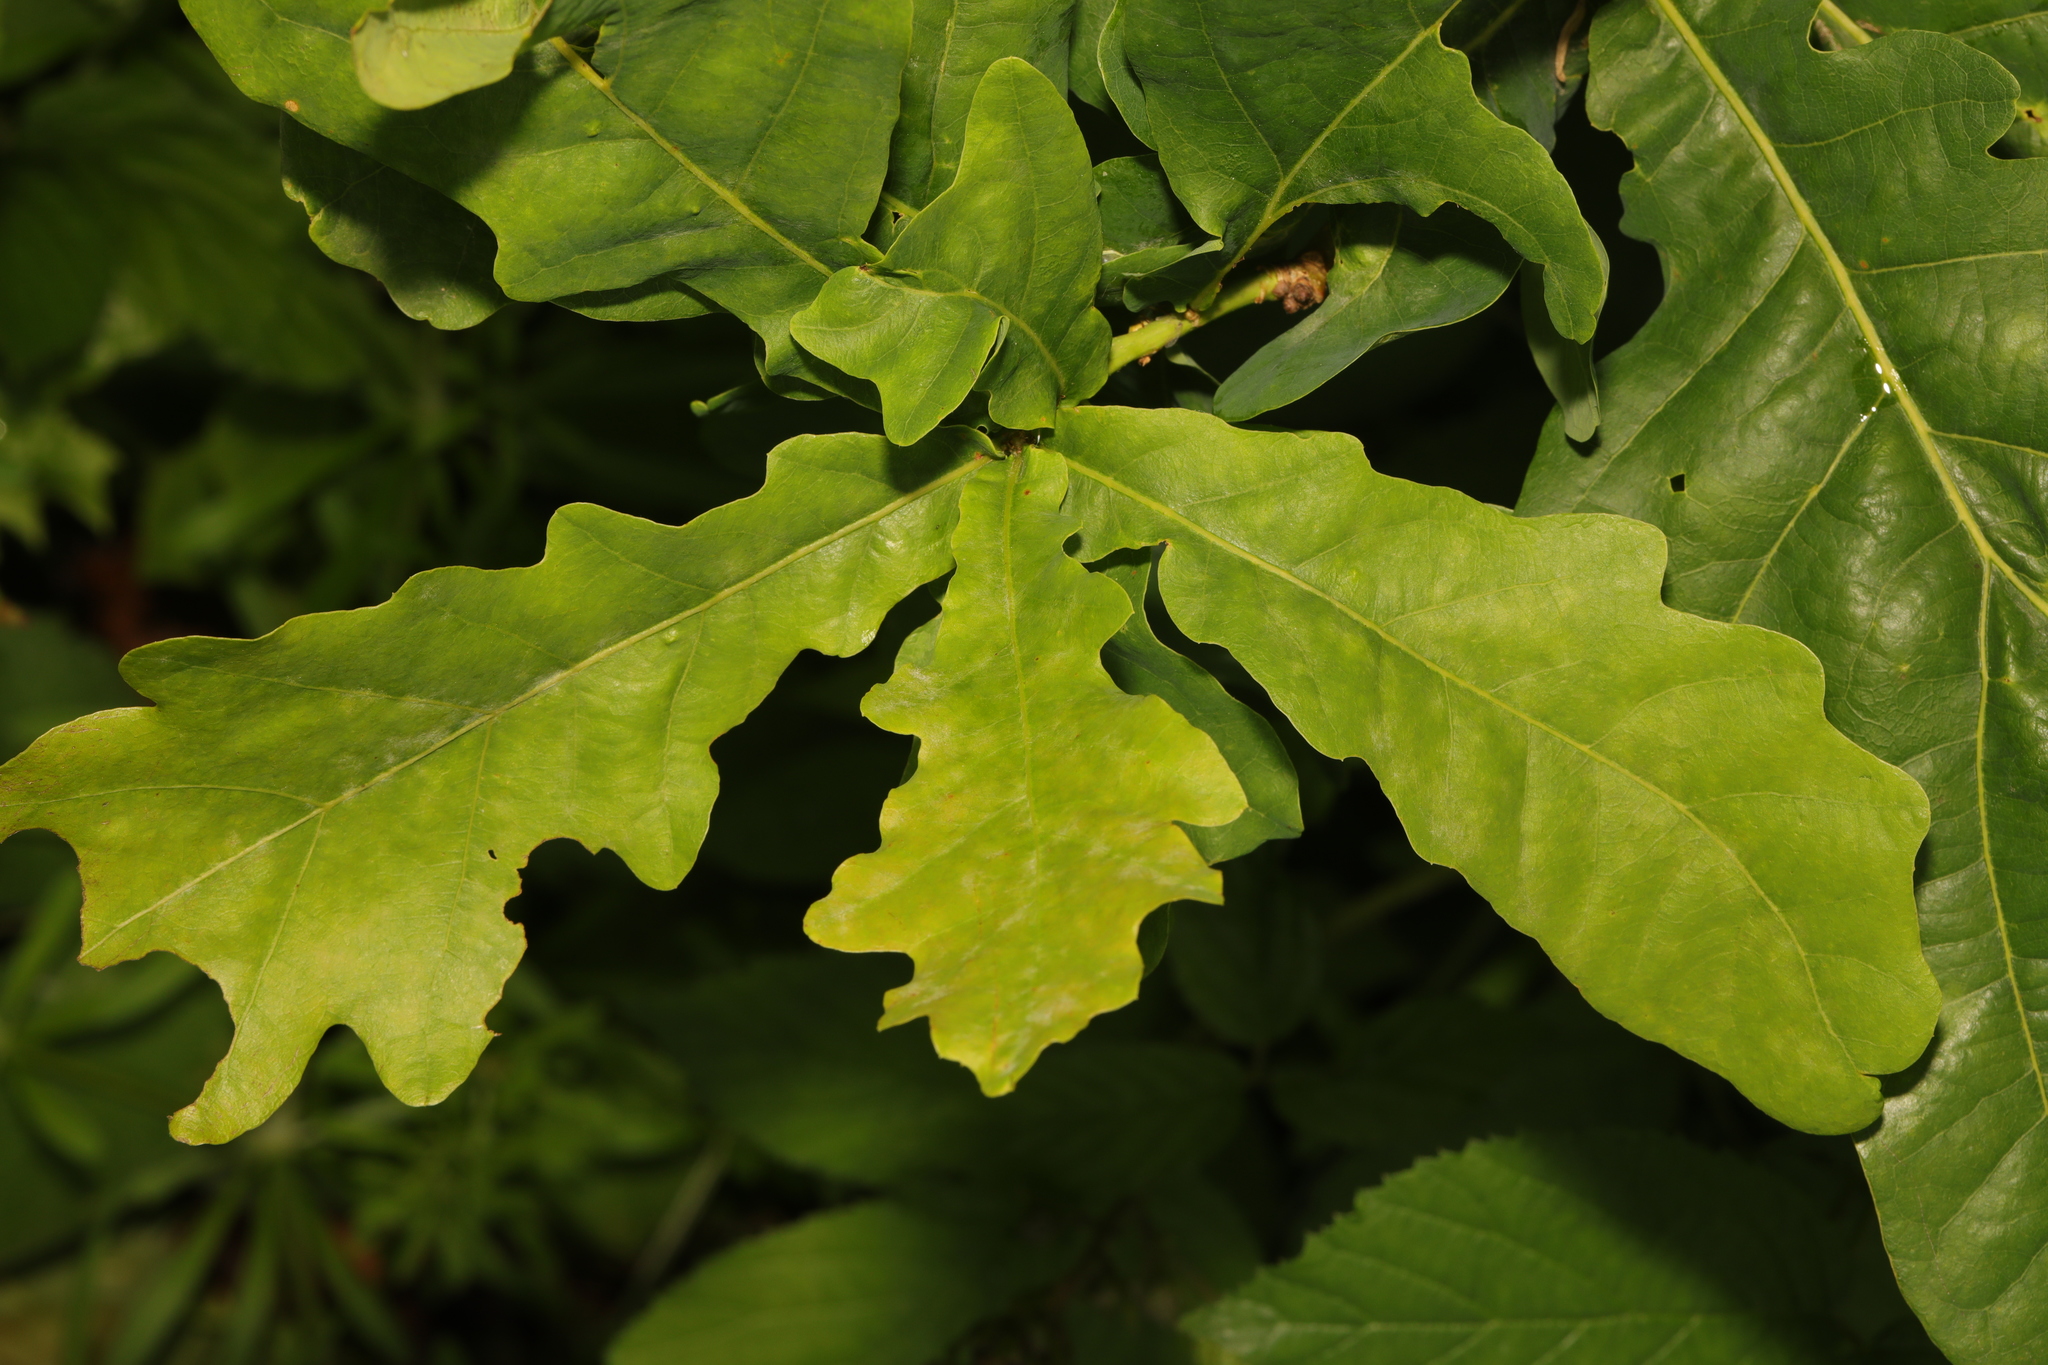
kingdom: Plantae
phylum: Tracheophyta
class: Magnoliopsida
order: Fagales
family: Fagaceae
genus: Quercus
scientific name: Quercus robur
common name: Pedunculate oak
